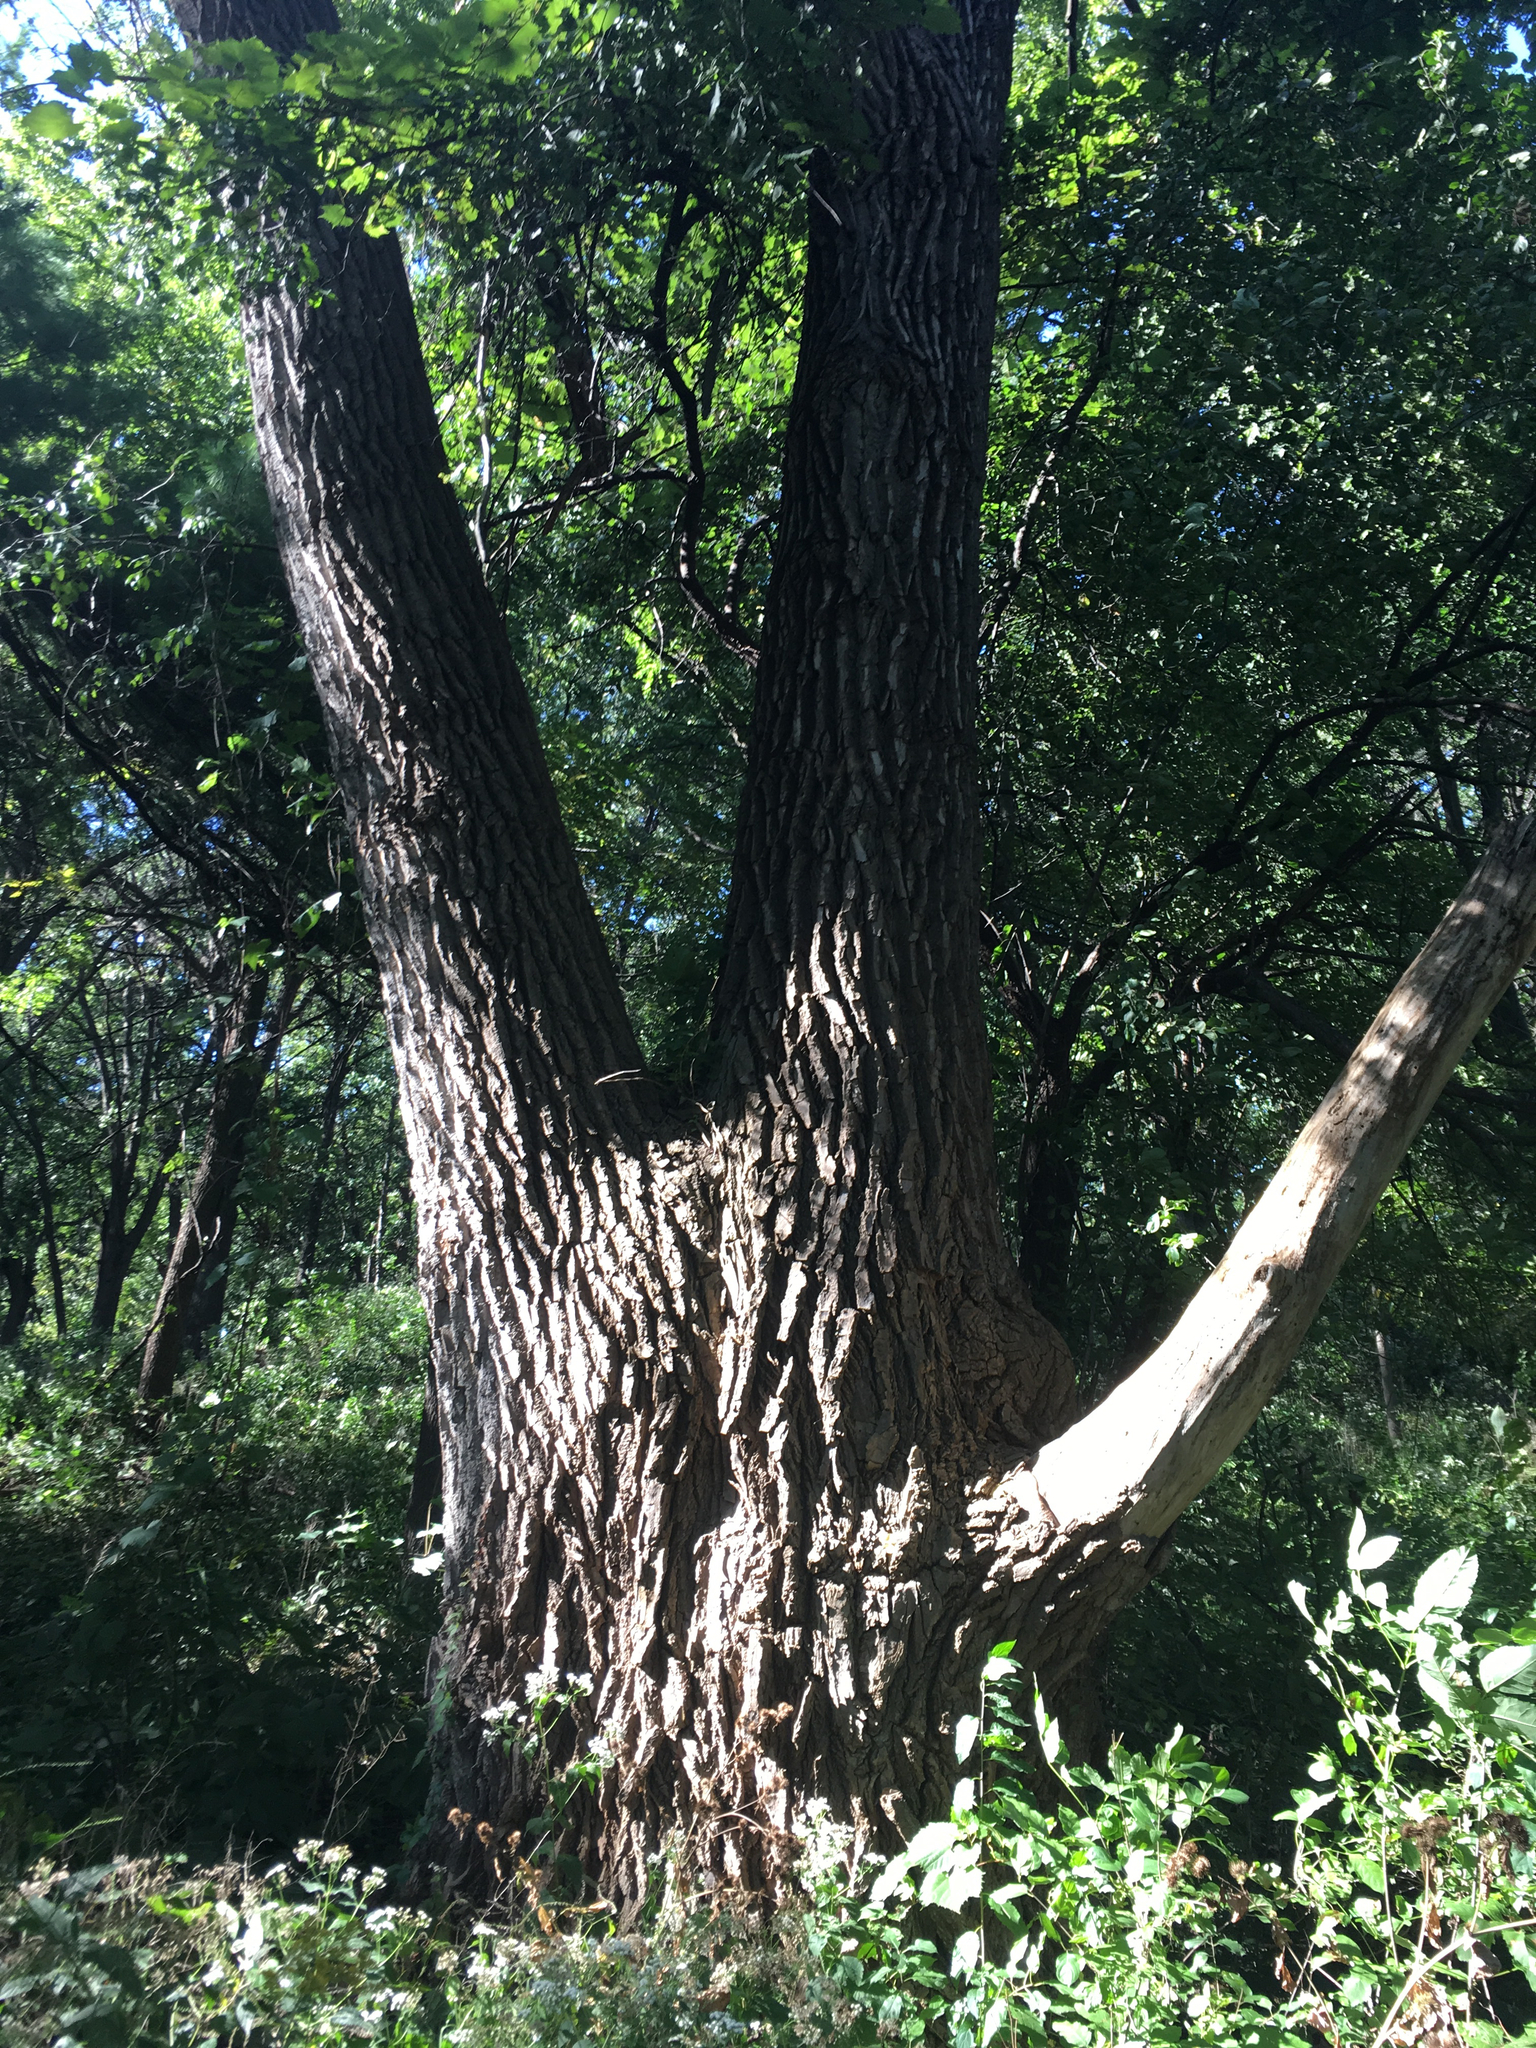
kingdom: Plantae
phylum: Tracheophyta
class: Magnoliopsida
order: Malpighiales
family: Salicaceae
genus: Populus
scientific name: Populus deltoides
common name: Eastern cottonwood
